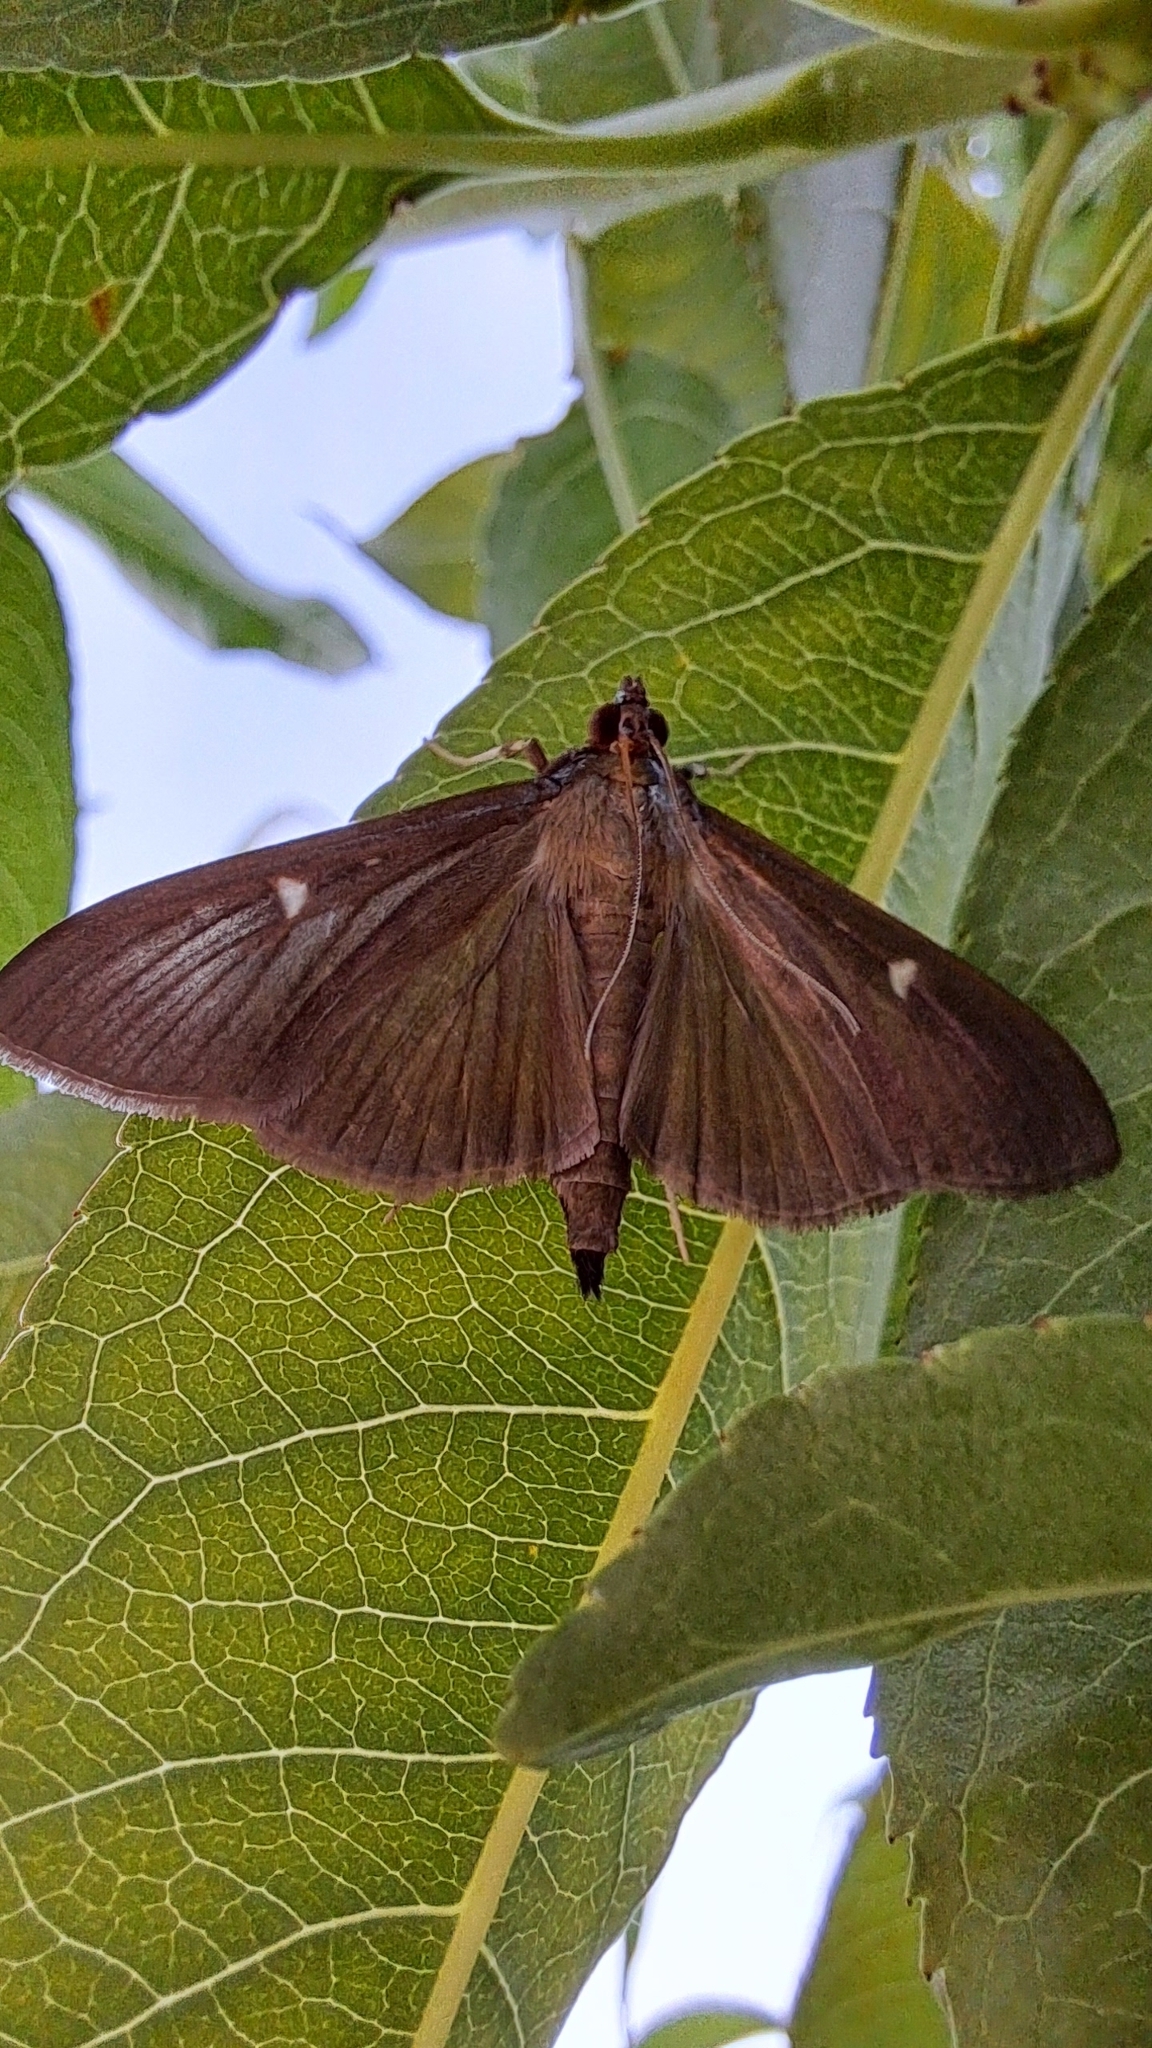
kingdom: Animalia
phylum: Arthropoda
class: Insecta
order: Lepidoptera
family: Crambidae
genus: Cydalima
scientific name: Cydalima perspectalis
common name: Box tree moth
